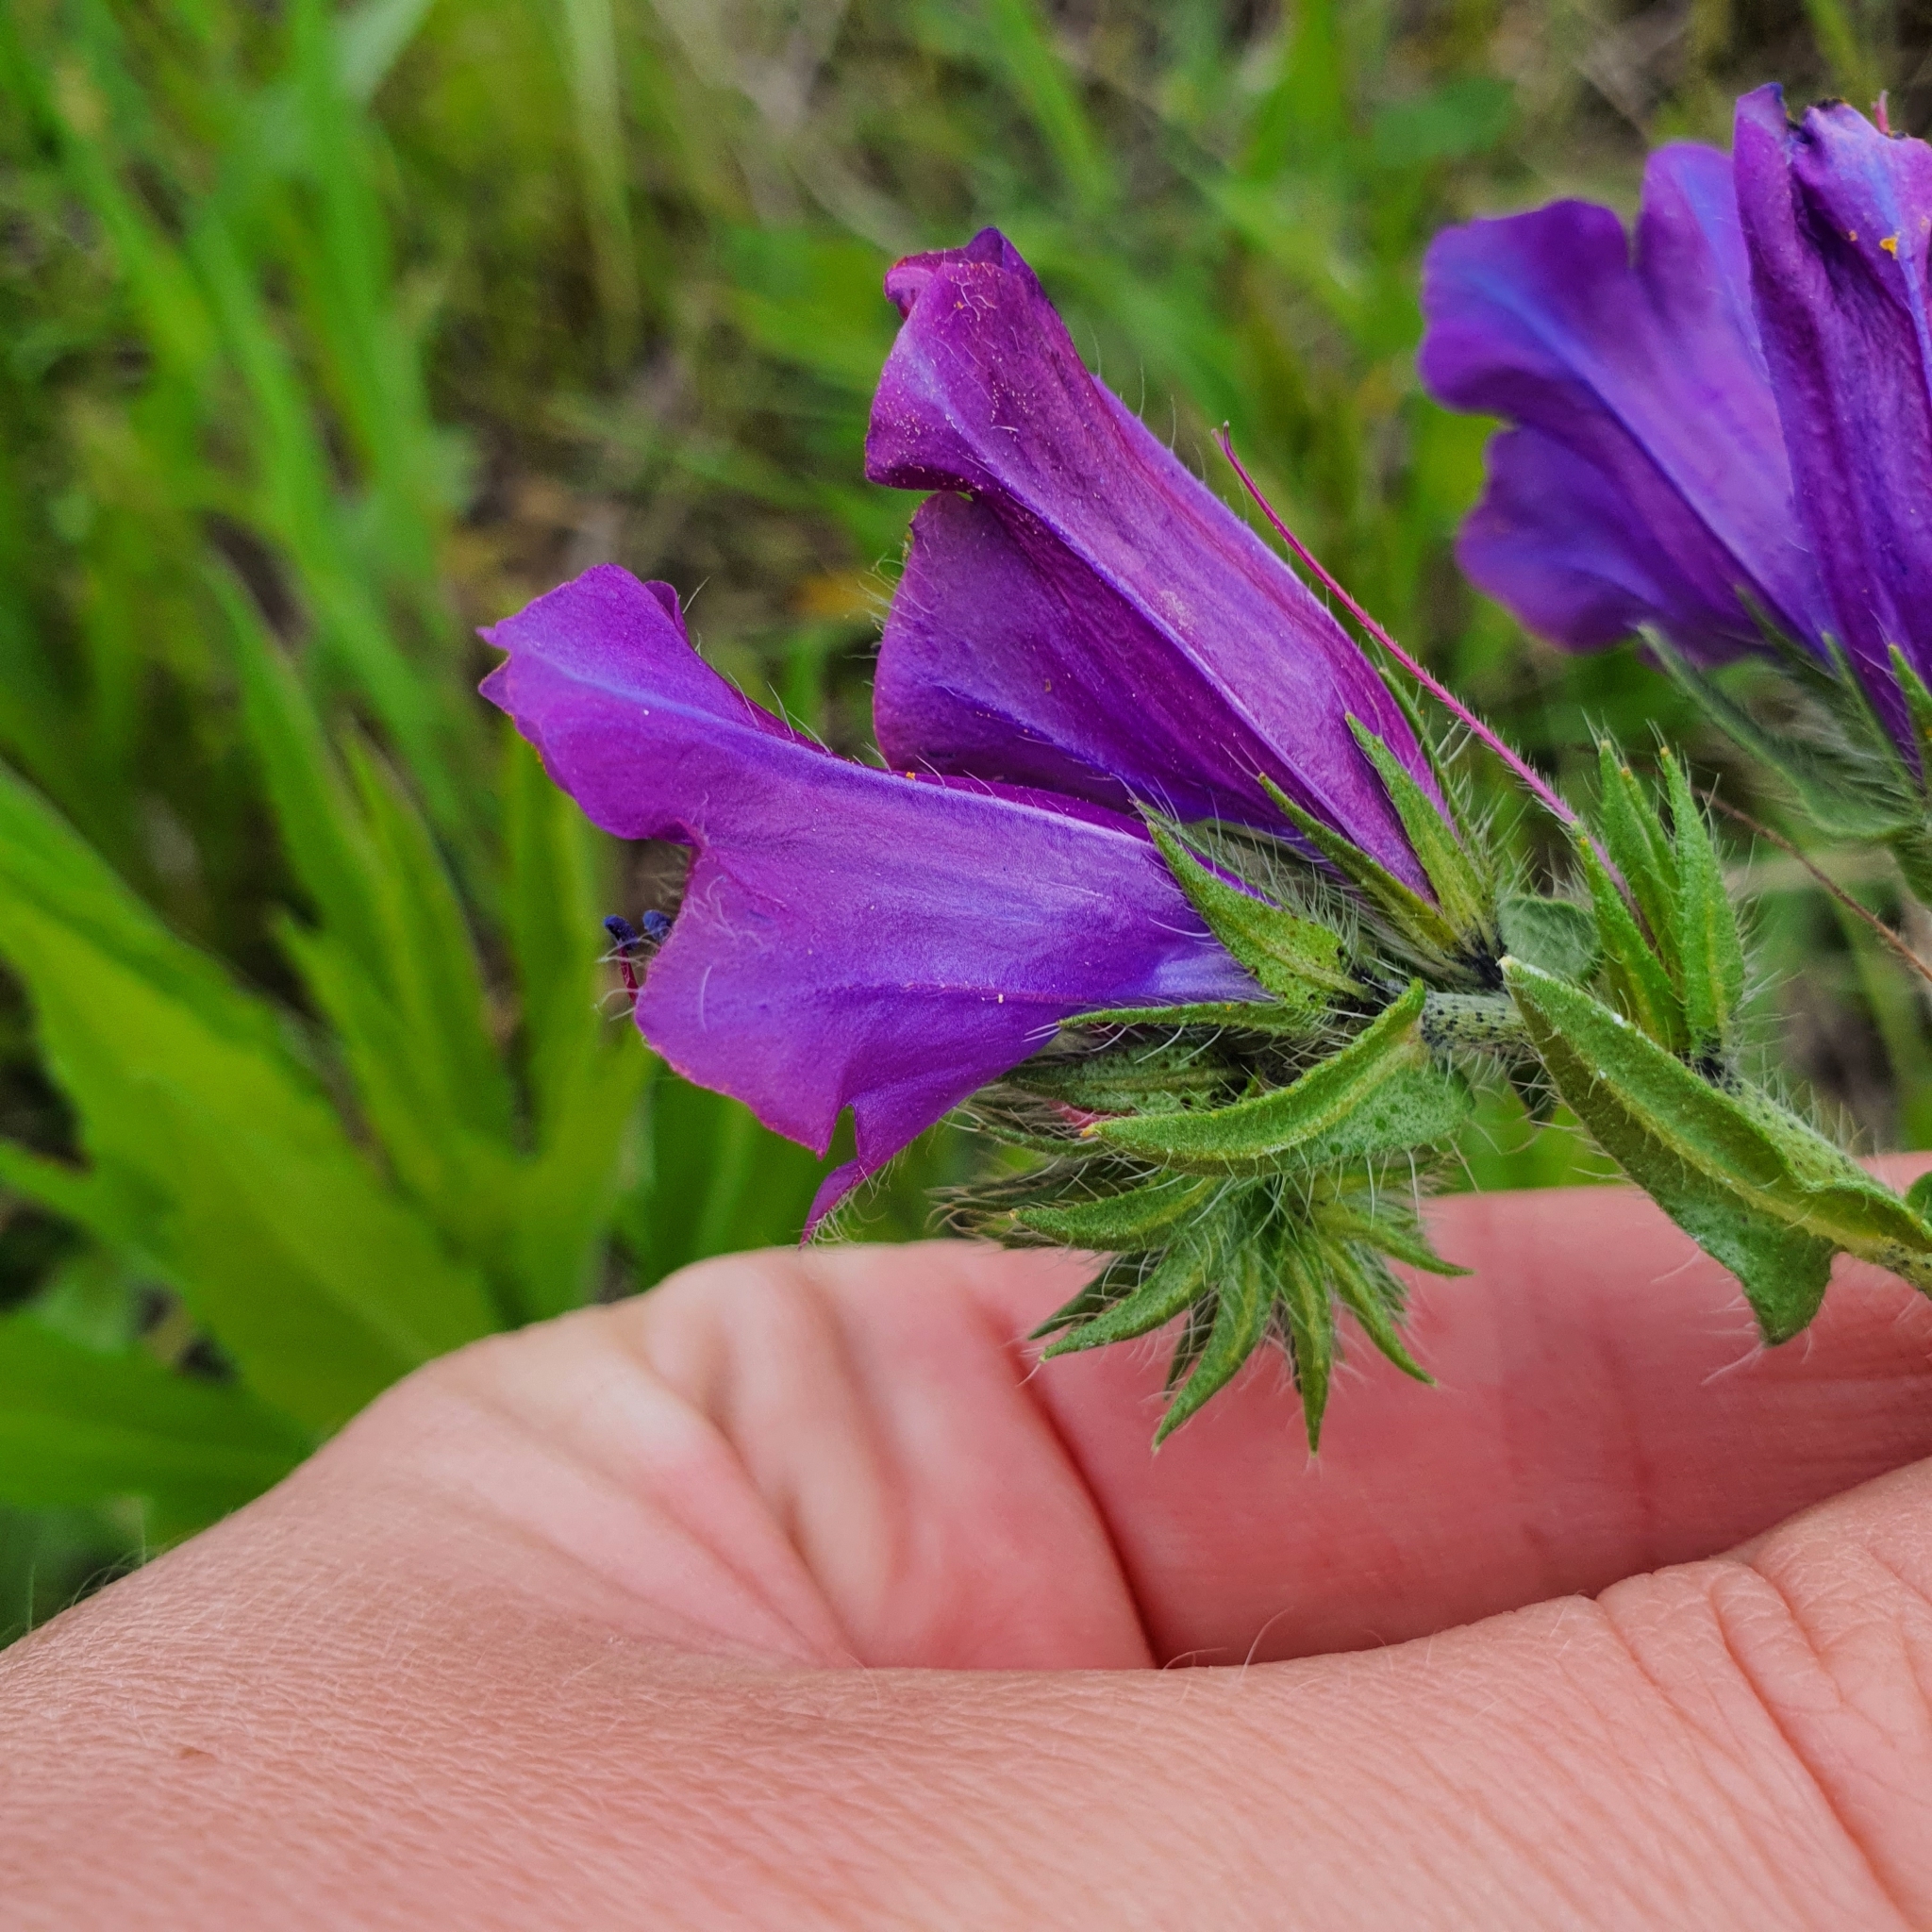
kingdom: Plantae
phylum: Tracheophyta
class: Magnoliopsida
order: Boraginales
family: Boraginaceae
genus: Echium
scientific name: Echium plantagineum
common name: Purple viper's-bugloss
